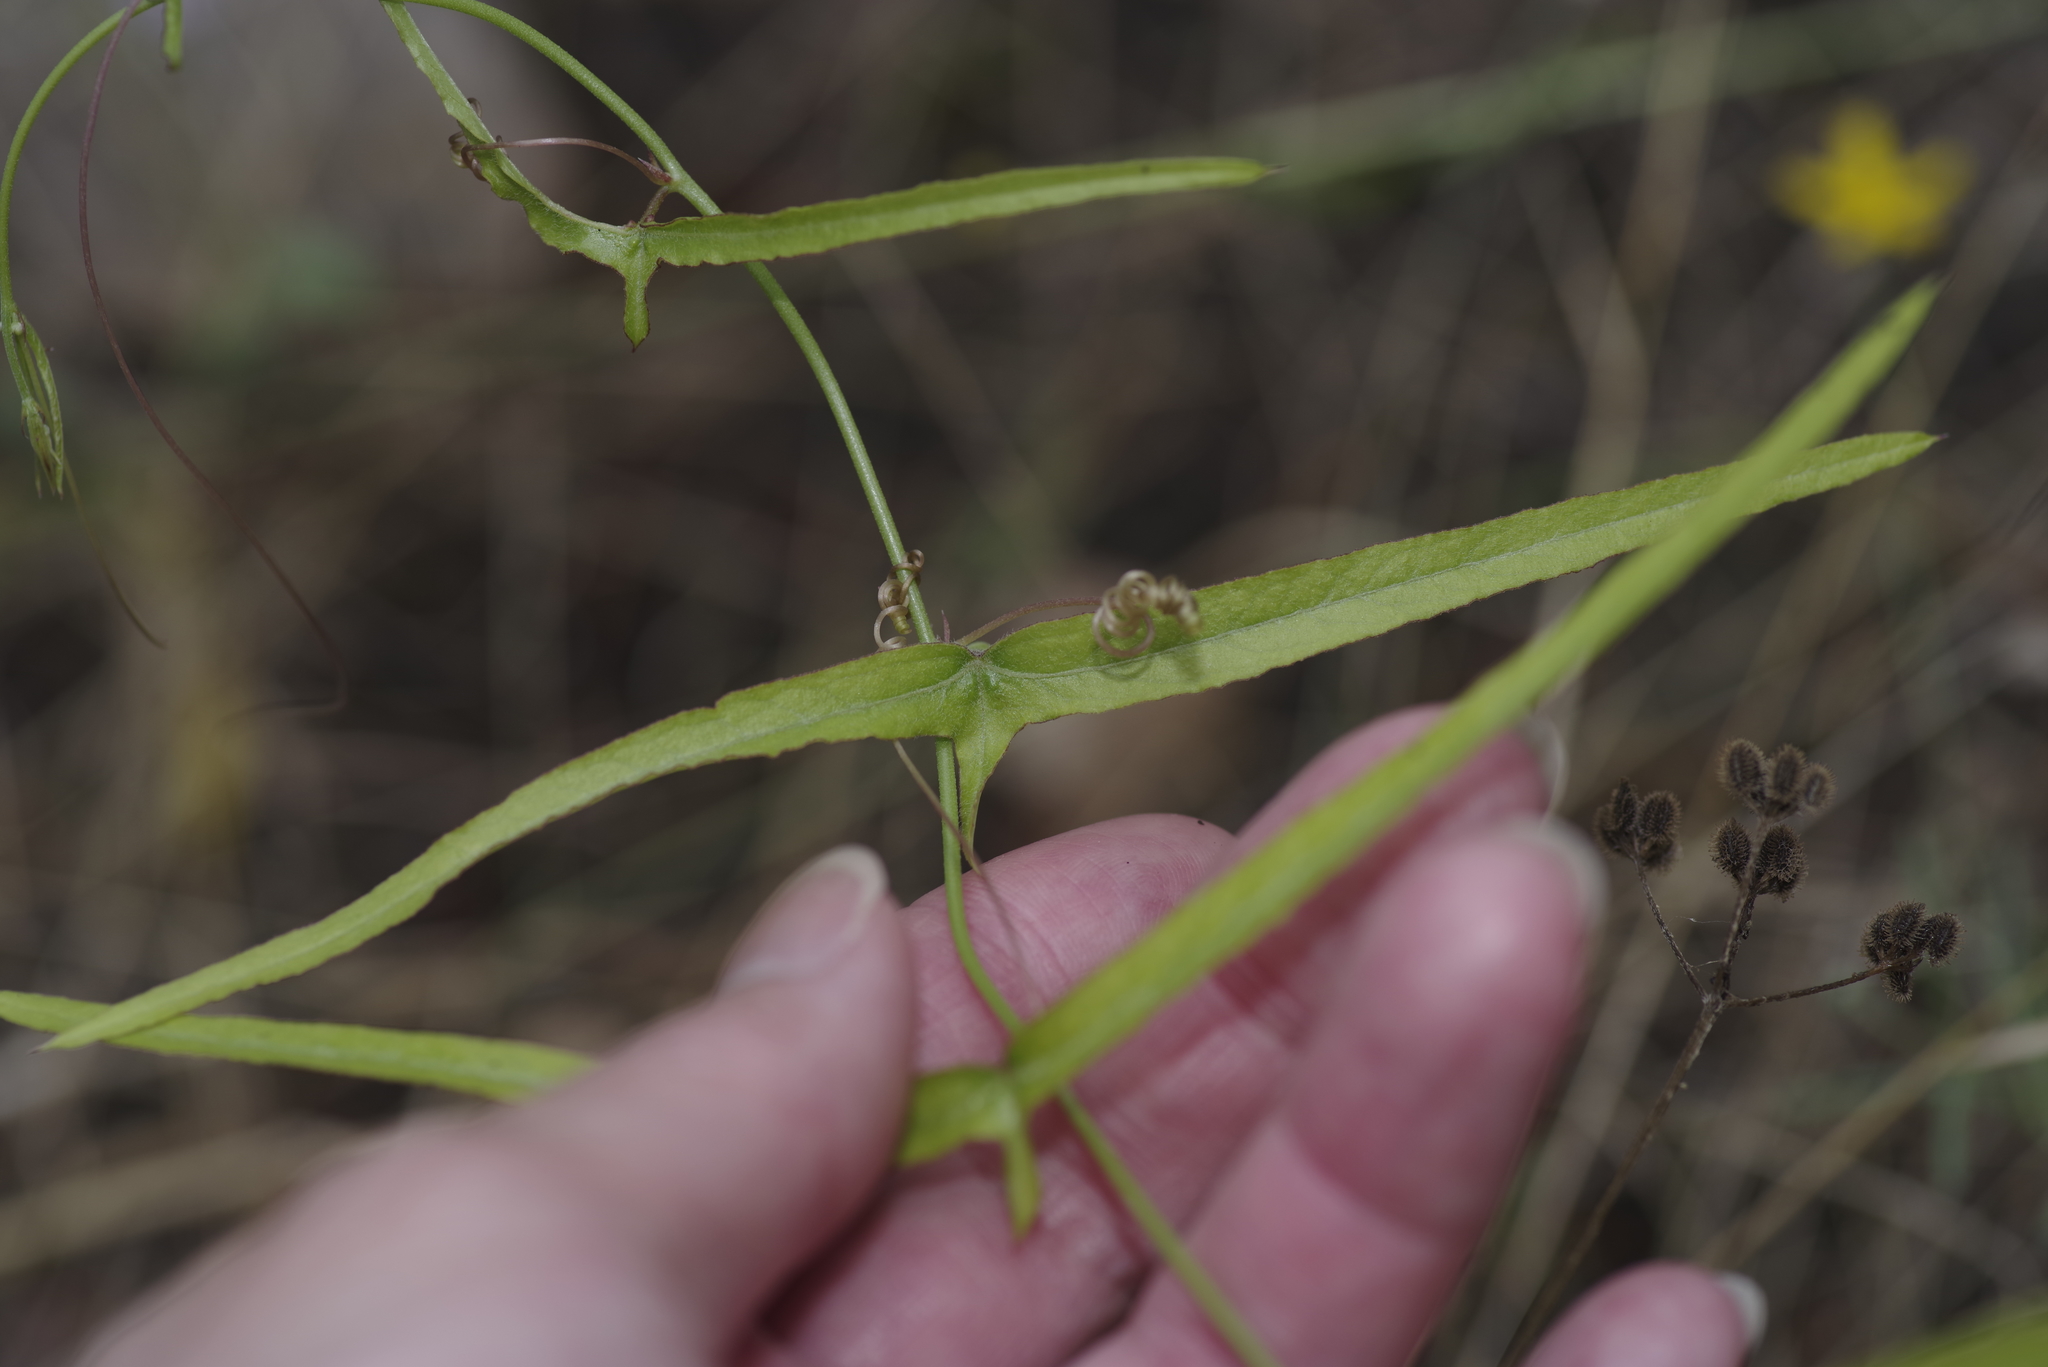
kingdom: Plantae
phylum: Tracheophyta
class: Magnoliopsida
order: Malpighiales
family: Passifloraceae
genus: Passiflora
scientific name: Passiflora tenuiloba
